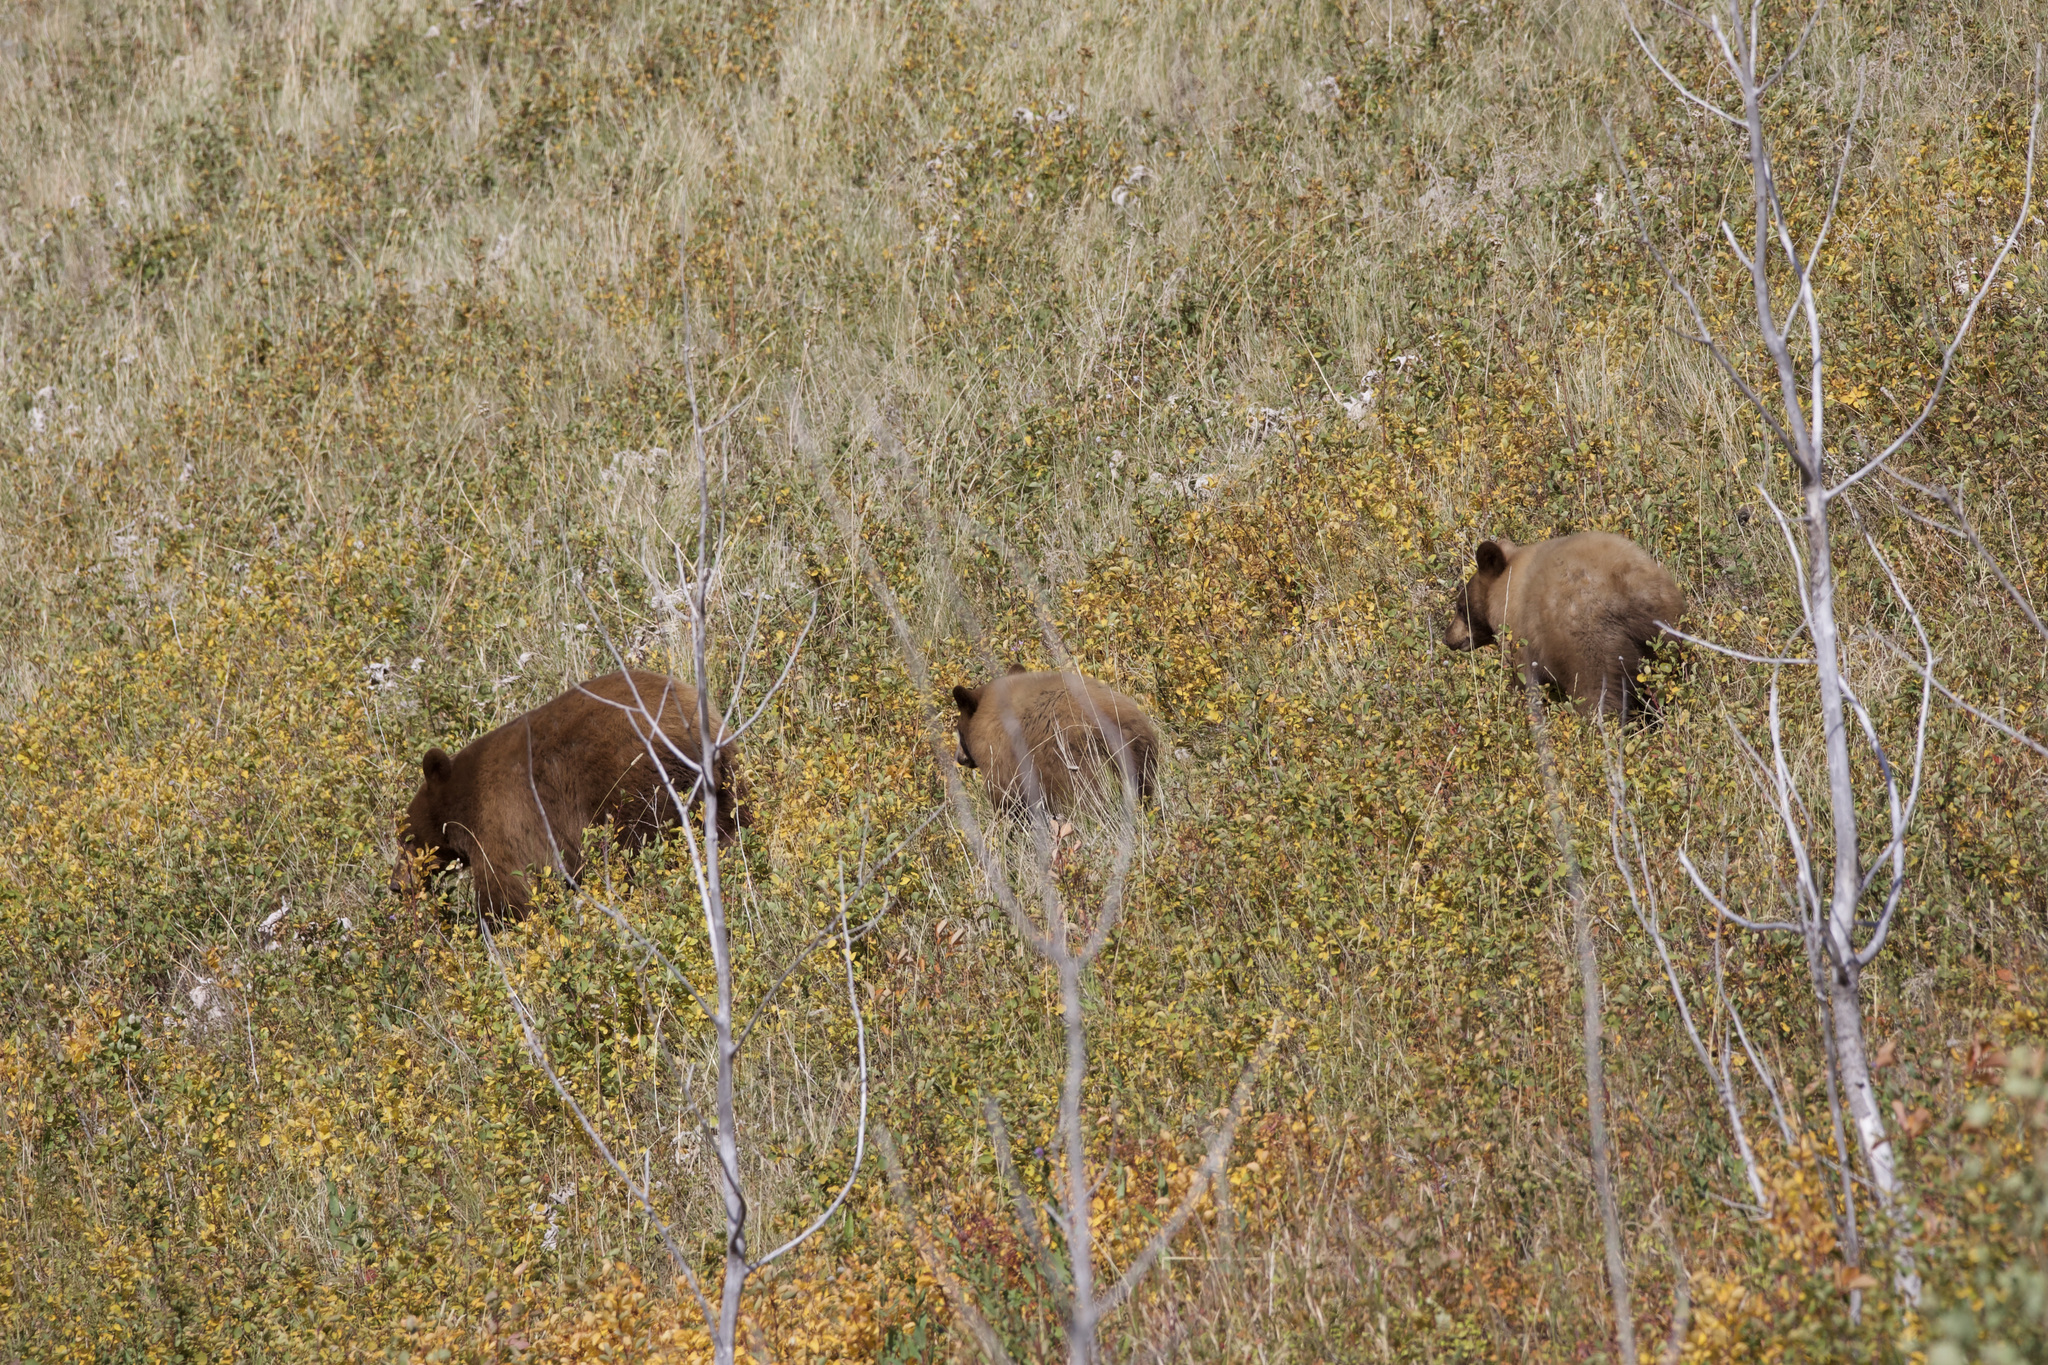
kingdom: Animalia
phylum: Chordata
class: Mammalia
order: Carnivora
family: Ursidae
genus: Ursus
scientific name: Ursus americanus
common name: American black bear
